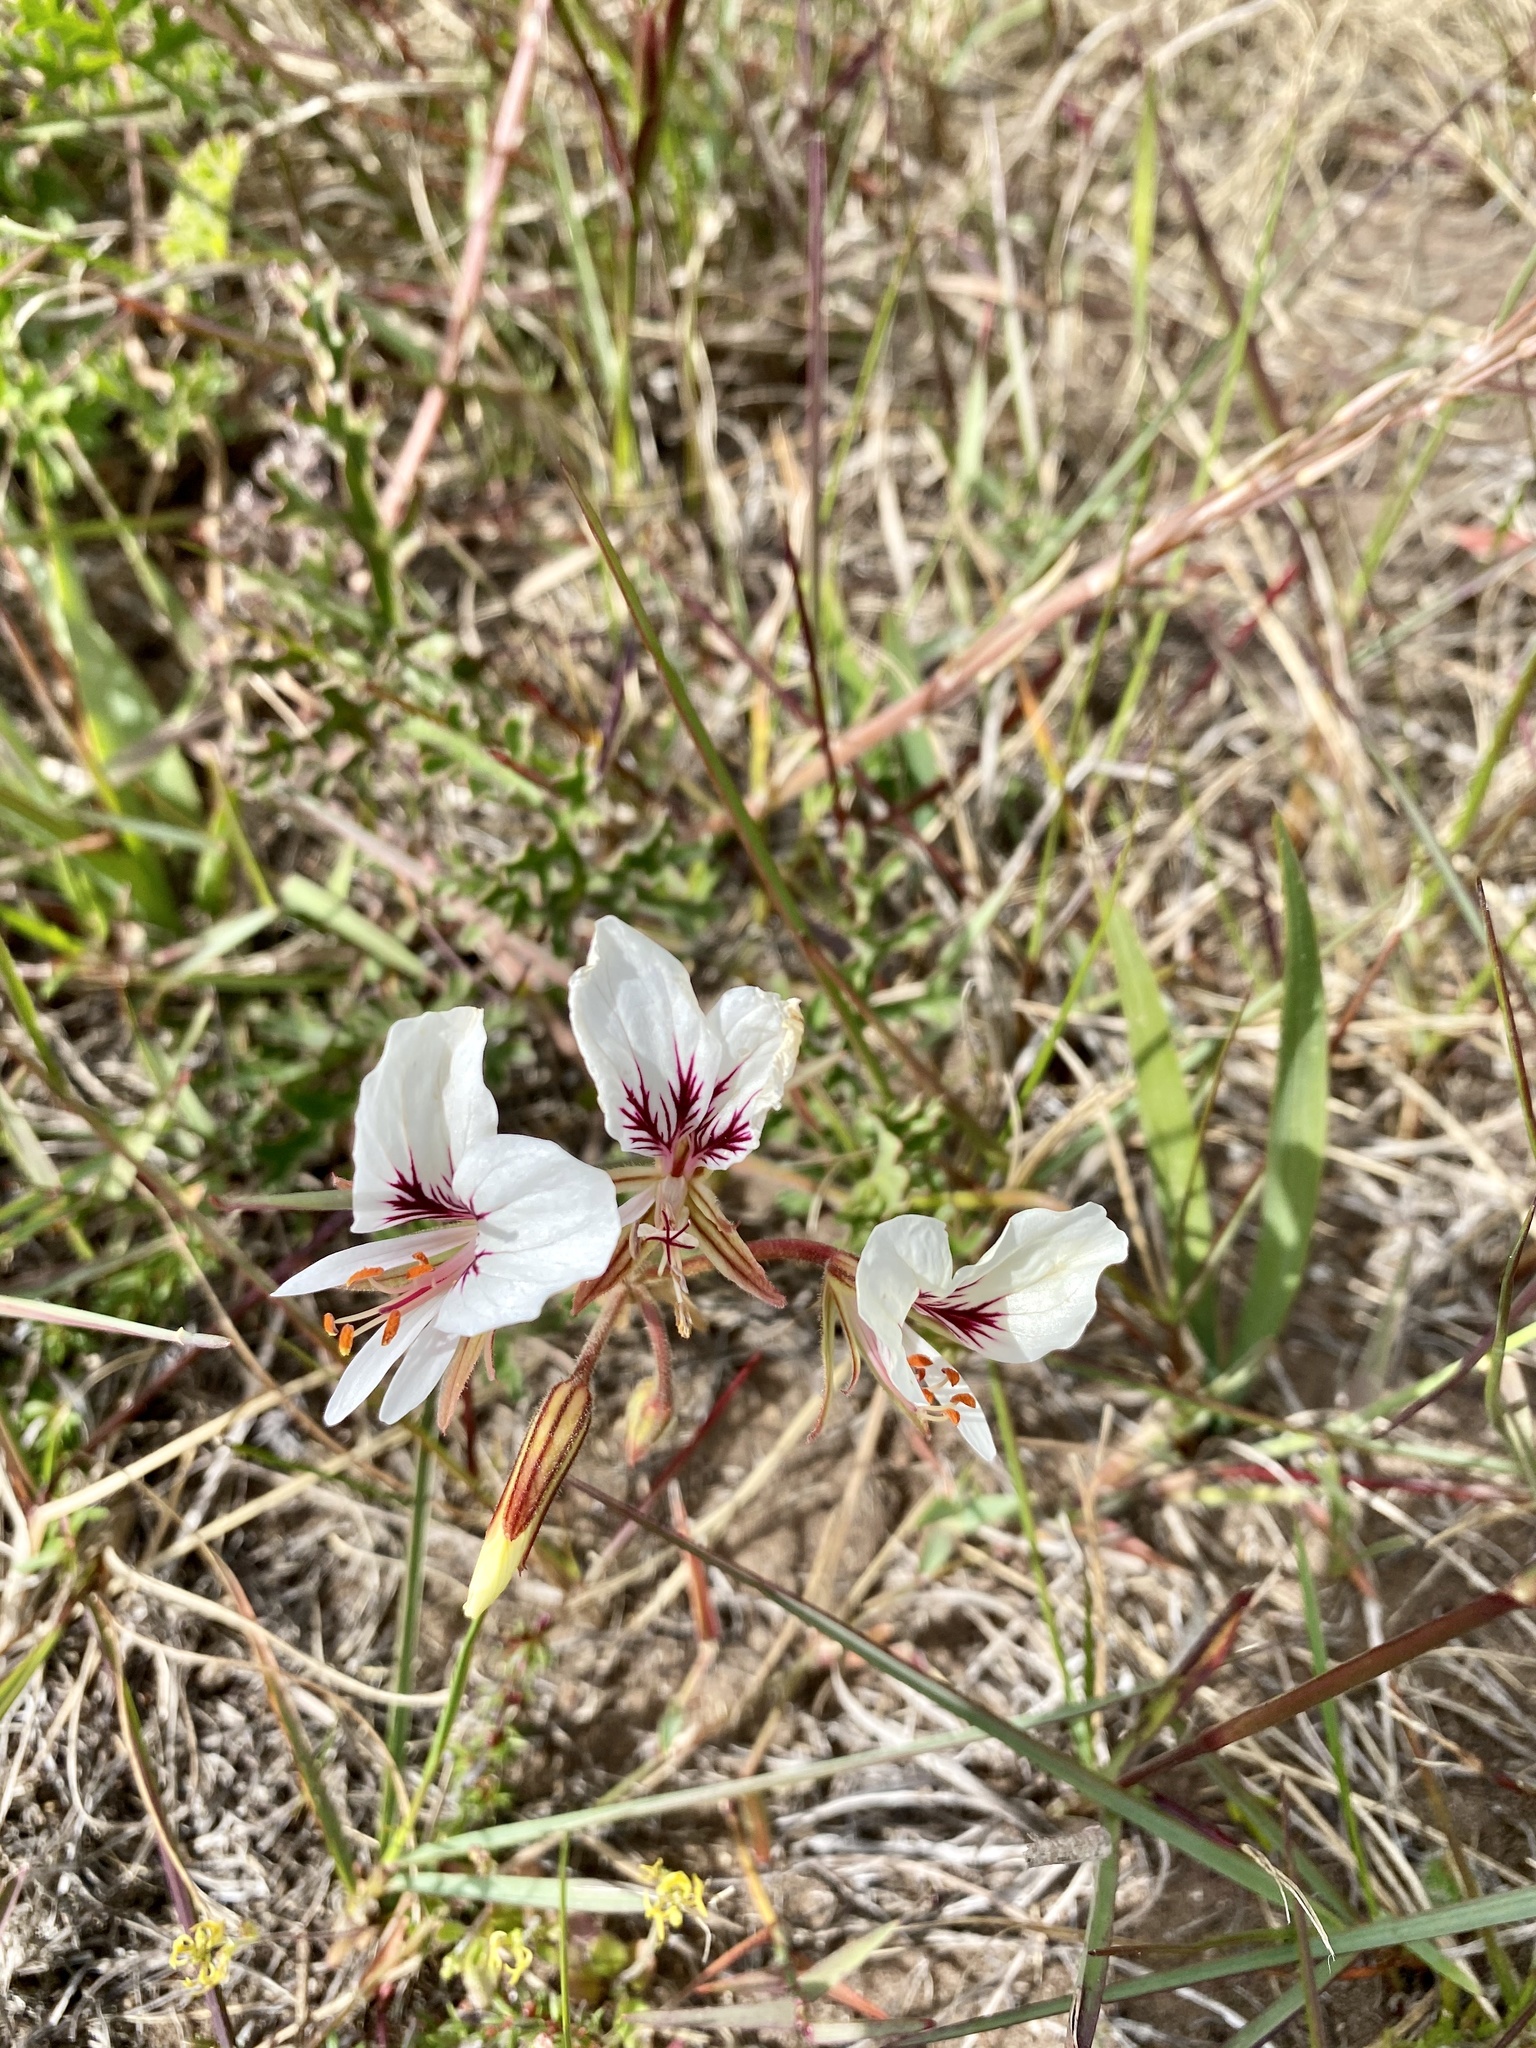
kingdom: Plantae
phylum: Tracheophyta
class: Magnoliopsida
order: Geraniales
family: Geraniaceae
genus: Pelargonium
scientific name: Pelargonium myrrhifolium
